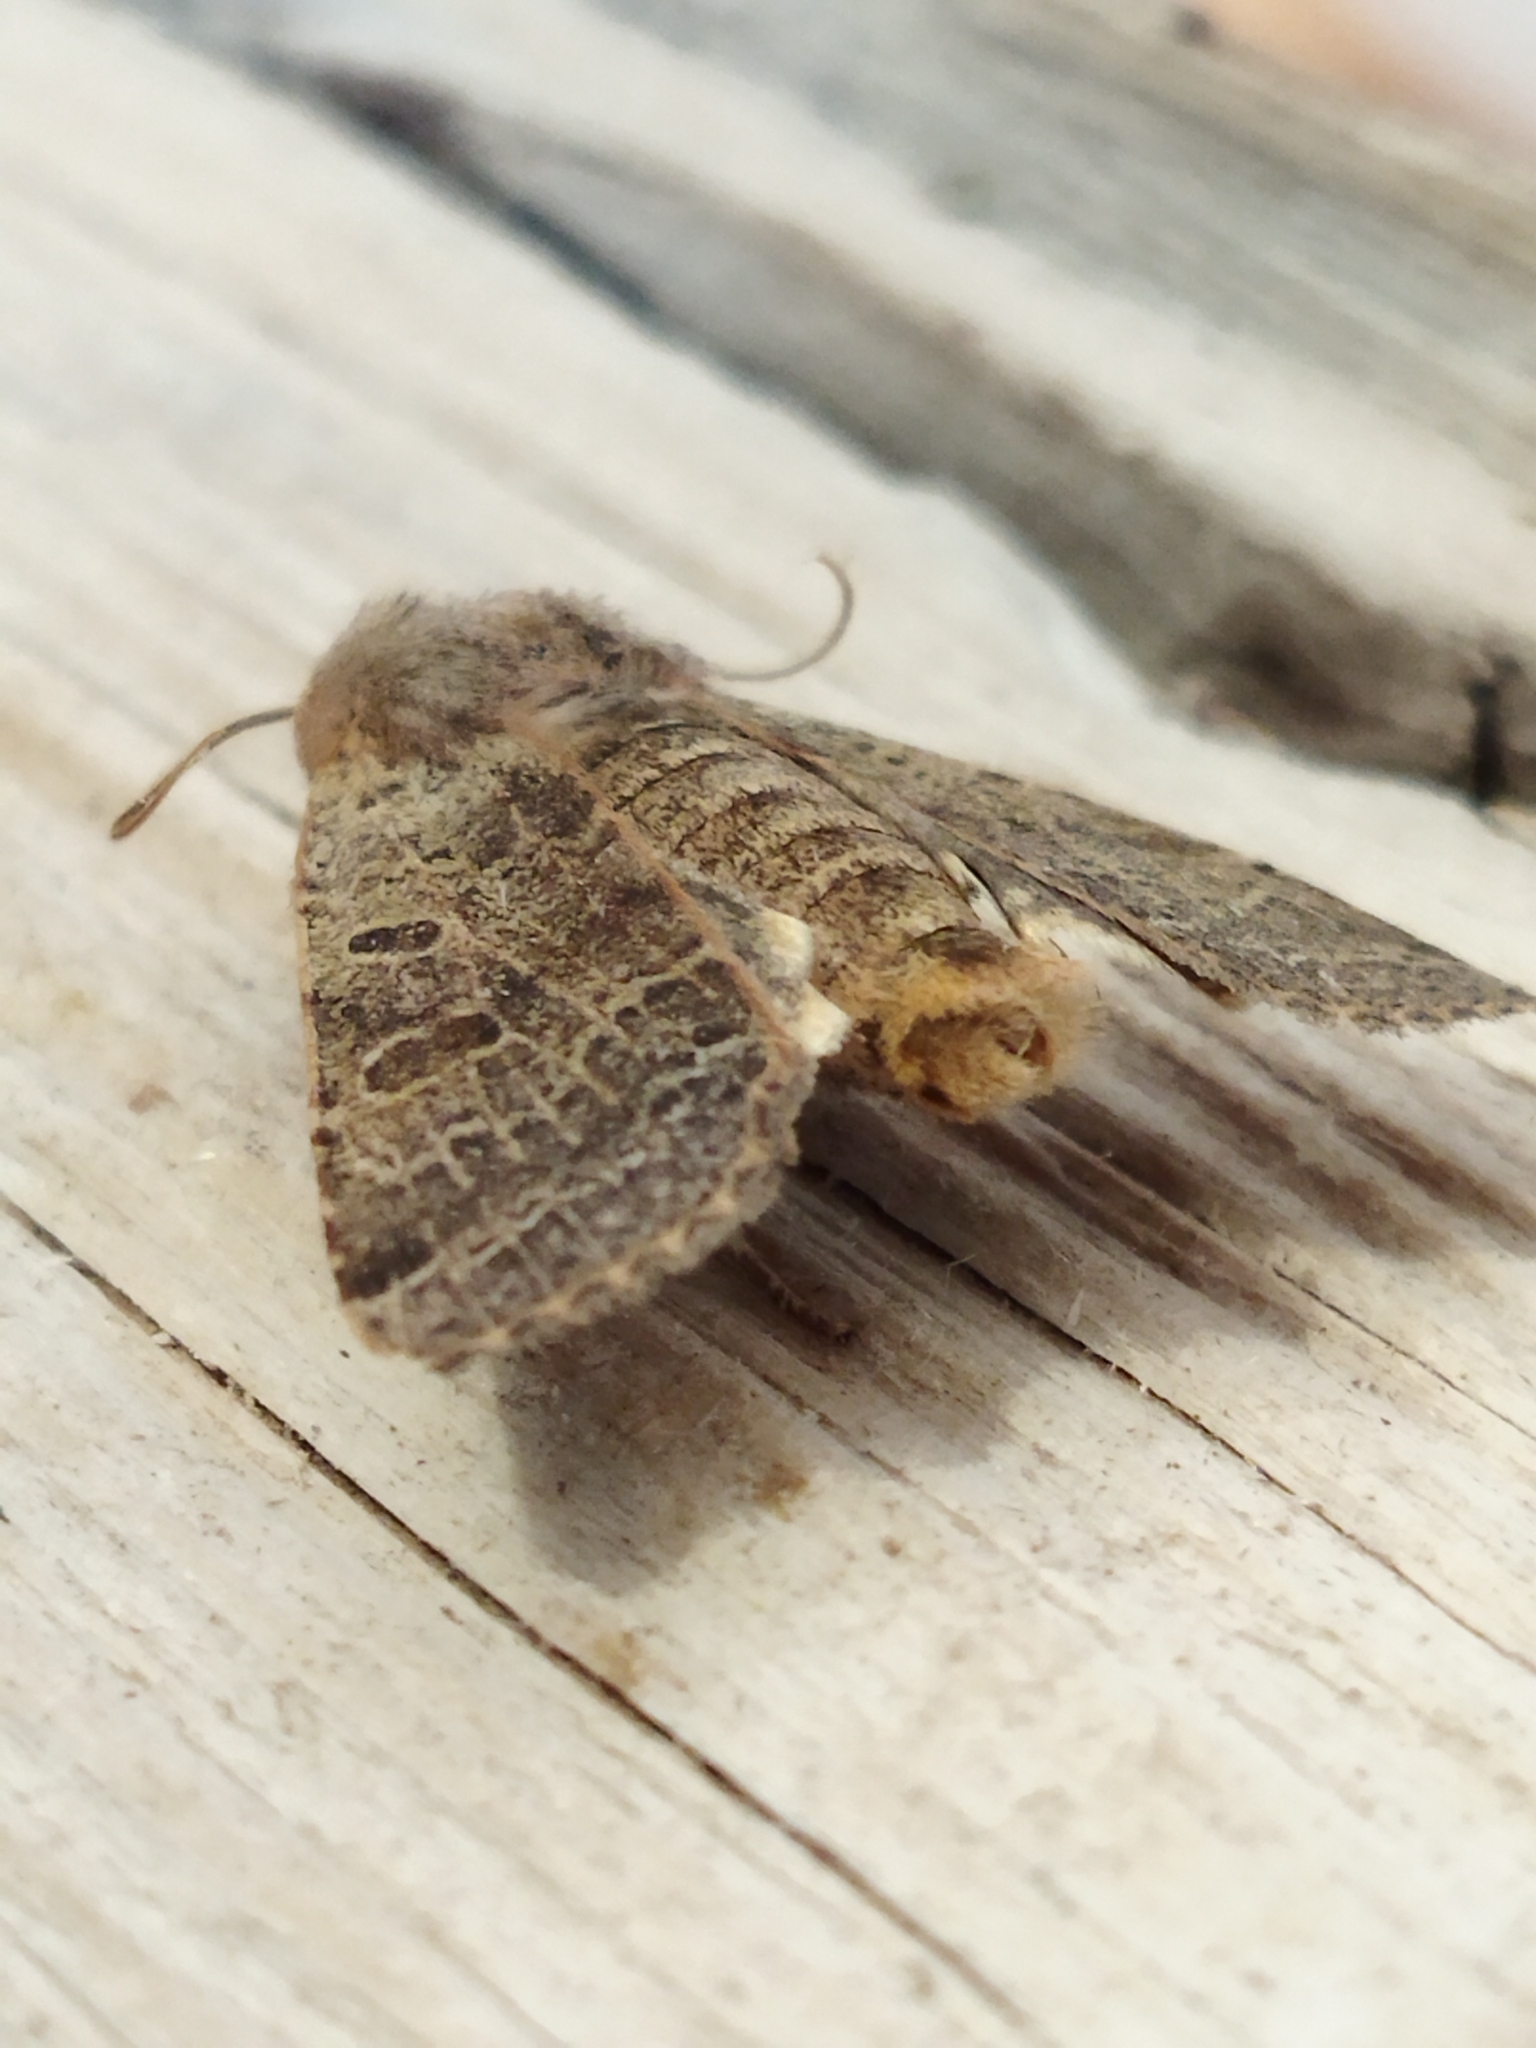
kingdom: Animalia
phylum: Arthropoda
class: Insecta
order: Lepidoptera
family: Noctuidae
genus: Agrochola
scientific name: Agrochola lychnidis
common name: Beaded chestnut
